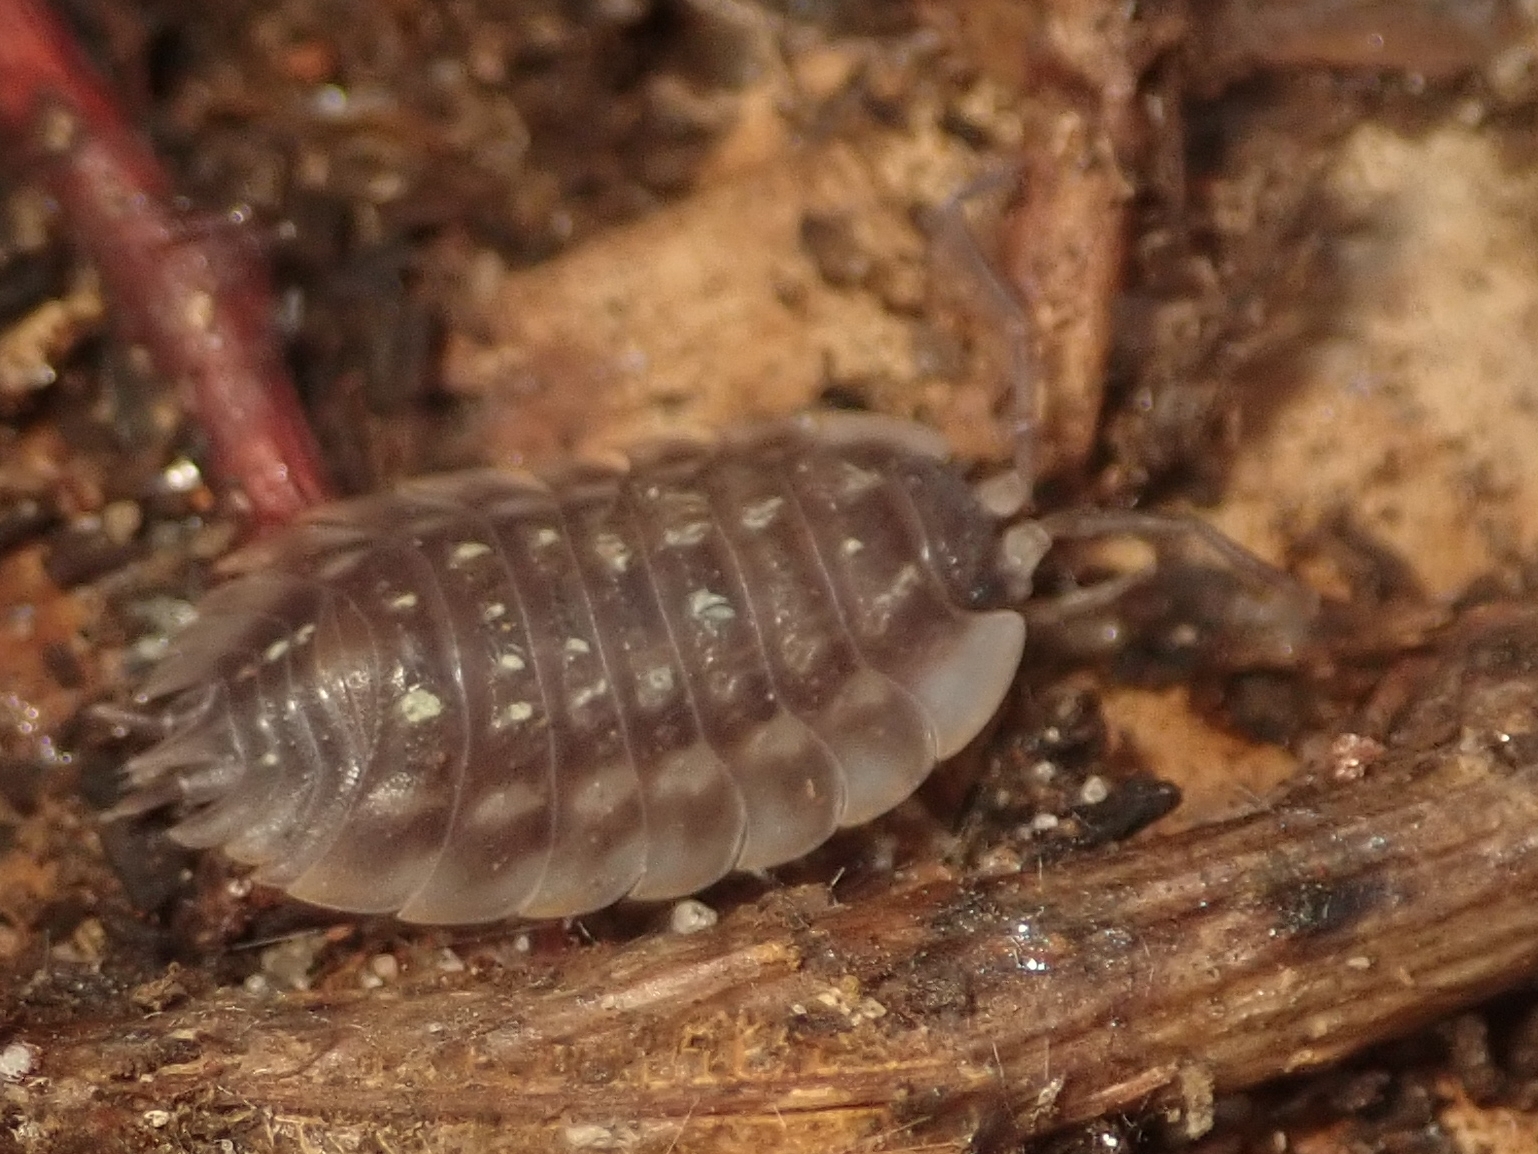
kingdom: Animalia
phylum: Arthropoda
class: Malacostraca
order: Isopoda
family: Oniscidae
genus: Oniscus
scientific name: Oniscus asellus
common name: Common shiny woodlouse
